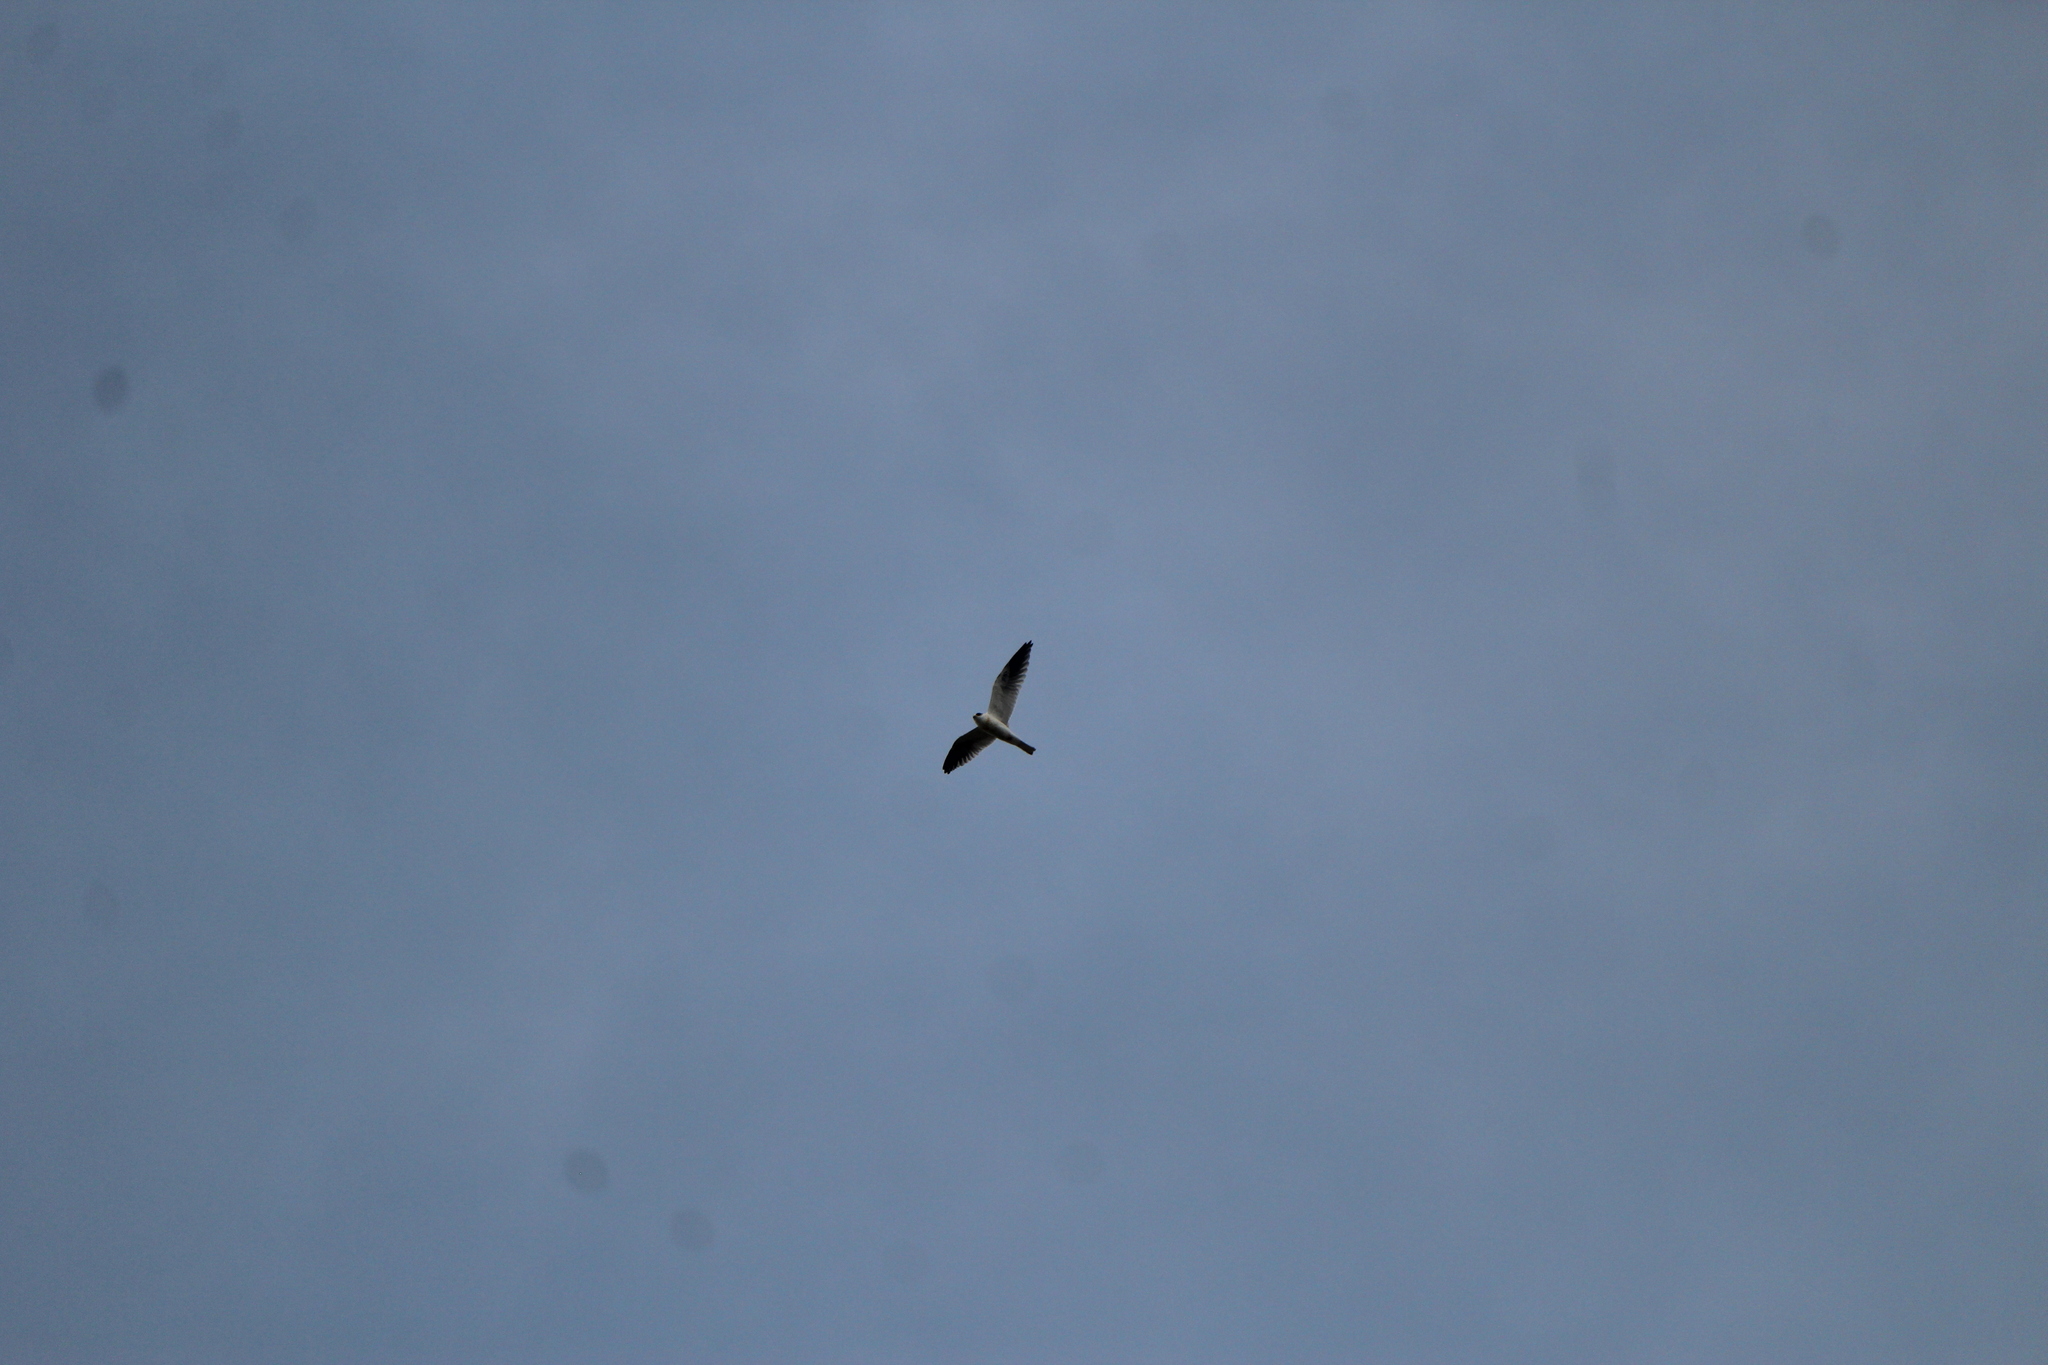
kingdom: Animalia
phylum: Chordata
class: Aves
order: Accipitriformes
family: Accipitridae
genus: Elanus
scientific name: Elanus leucurus
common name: White-tailed kite
